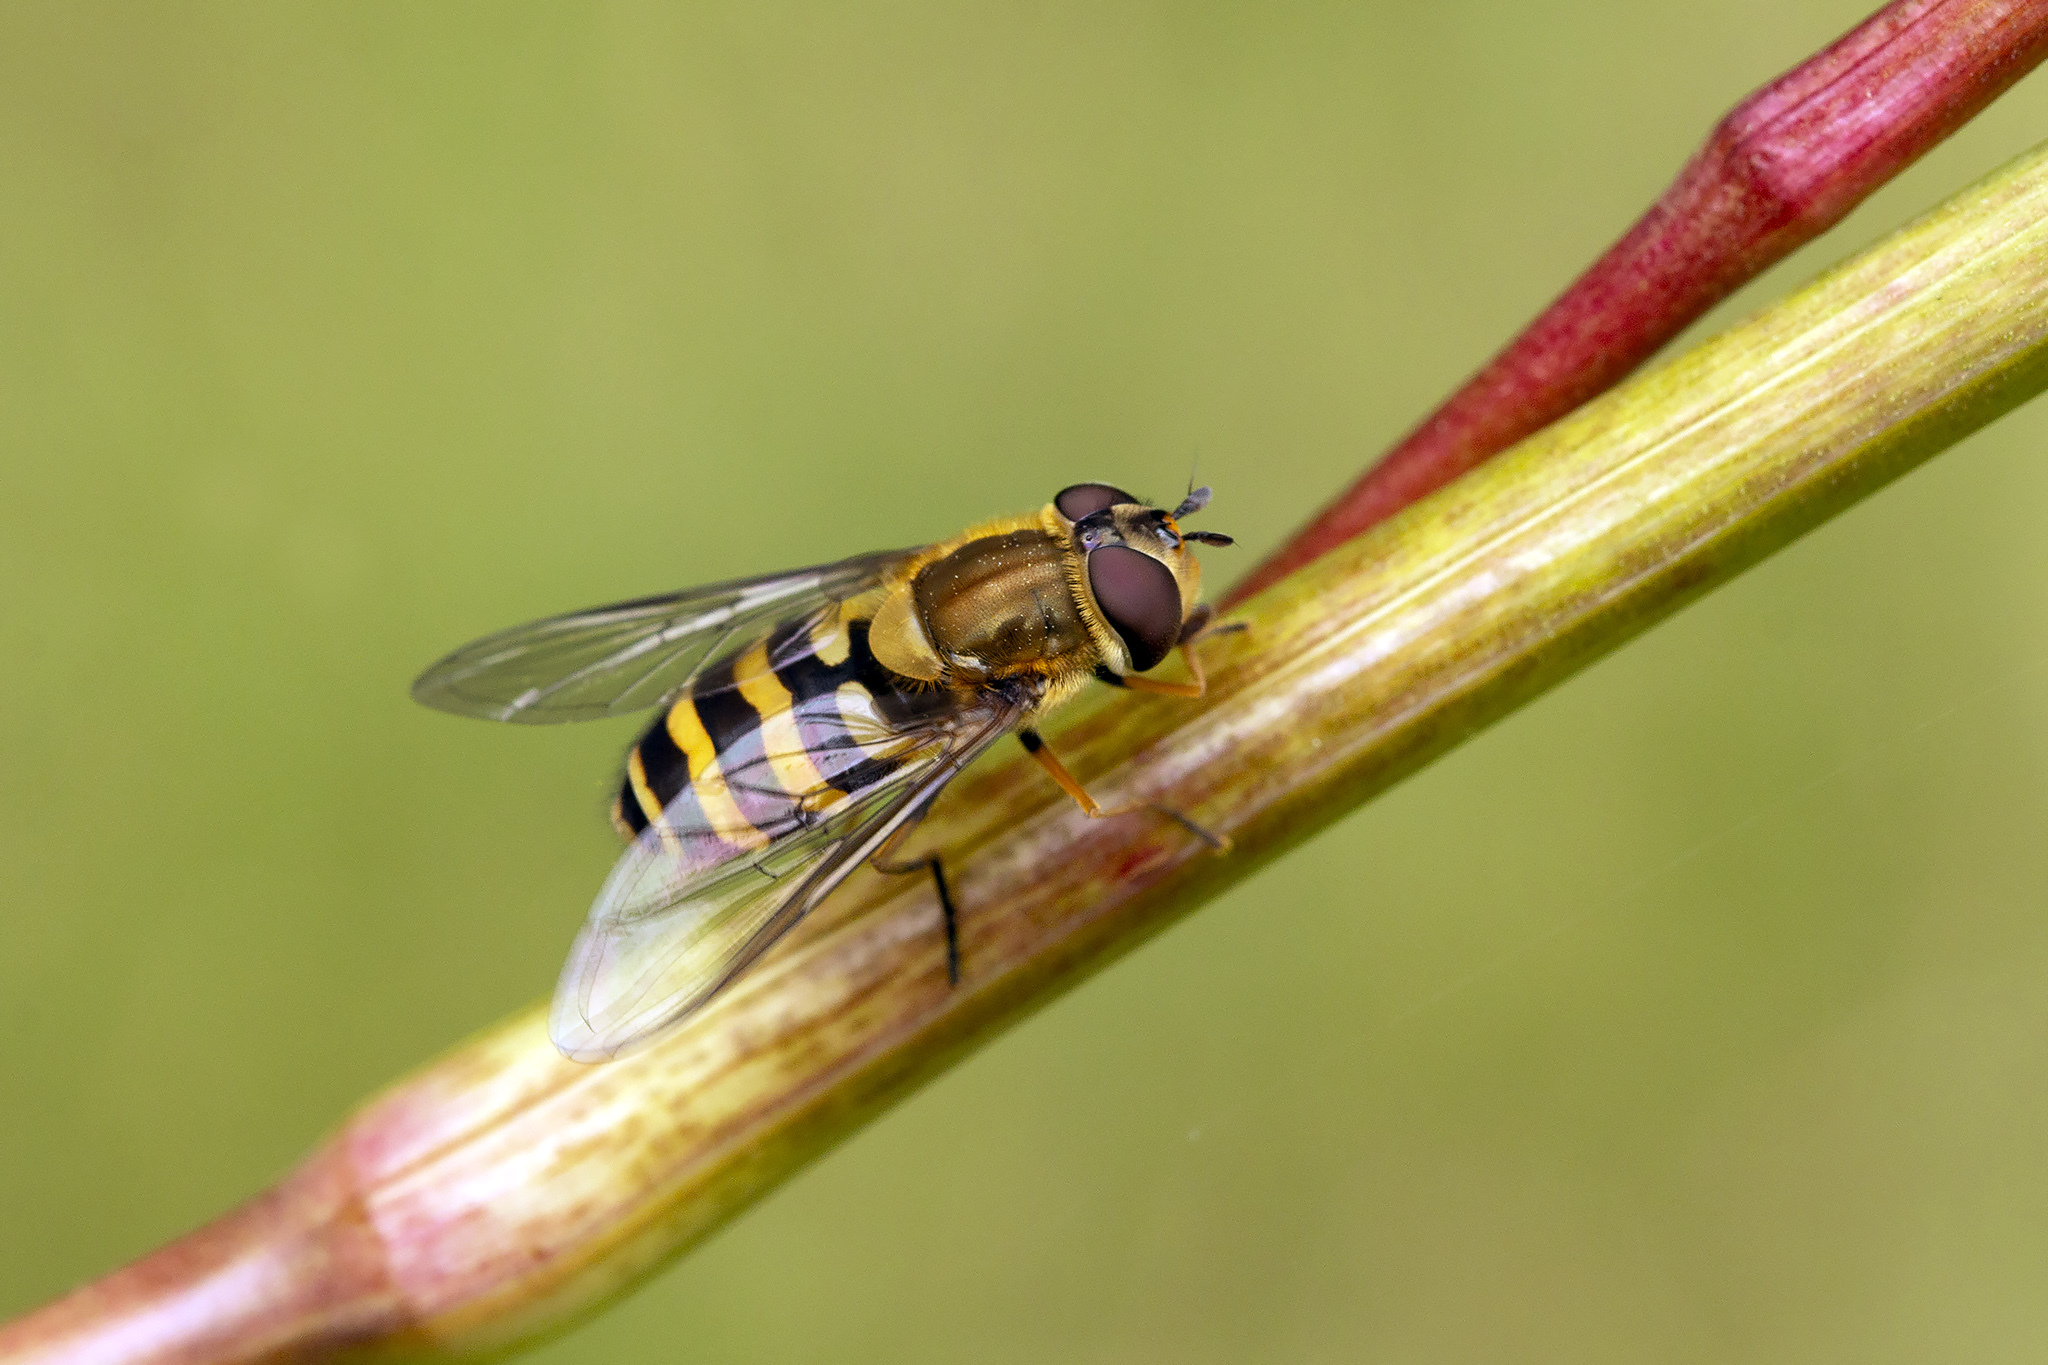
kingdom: Animalia
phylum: Arthropoda
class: Insecta
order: Diptera
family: Syrphidae
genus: Syrphus
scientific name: Syrphus torvus
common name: Hairy-eyed flower fly
